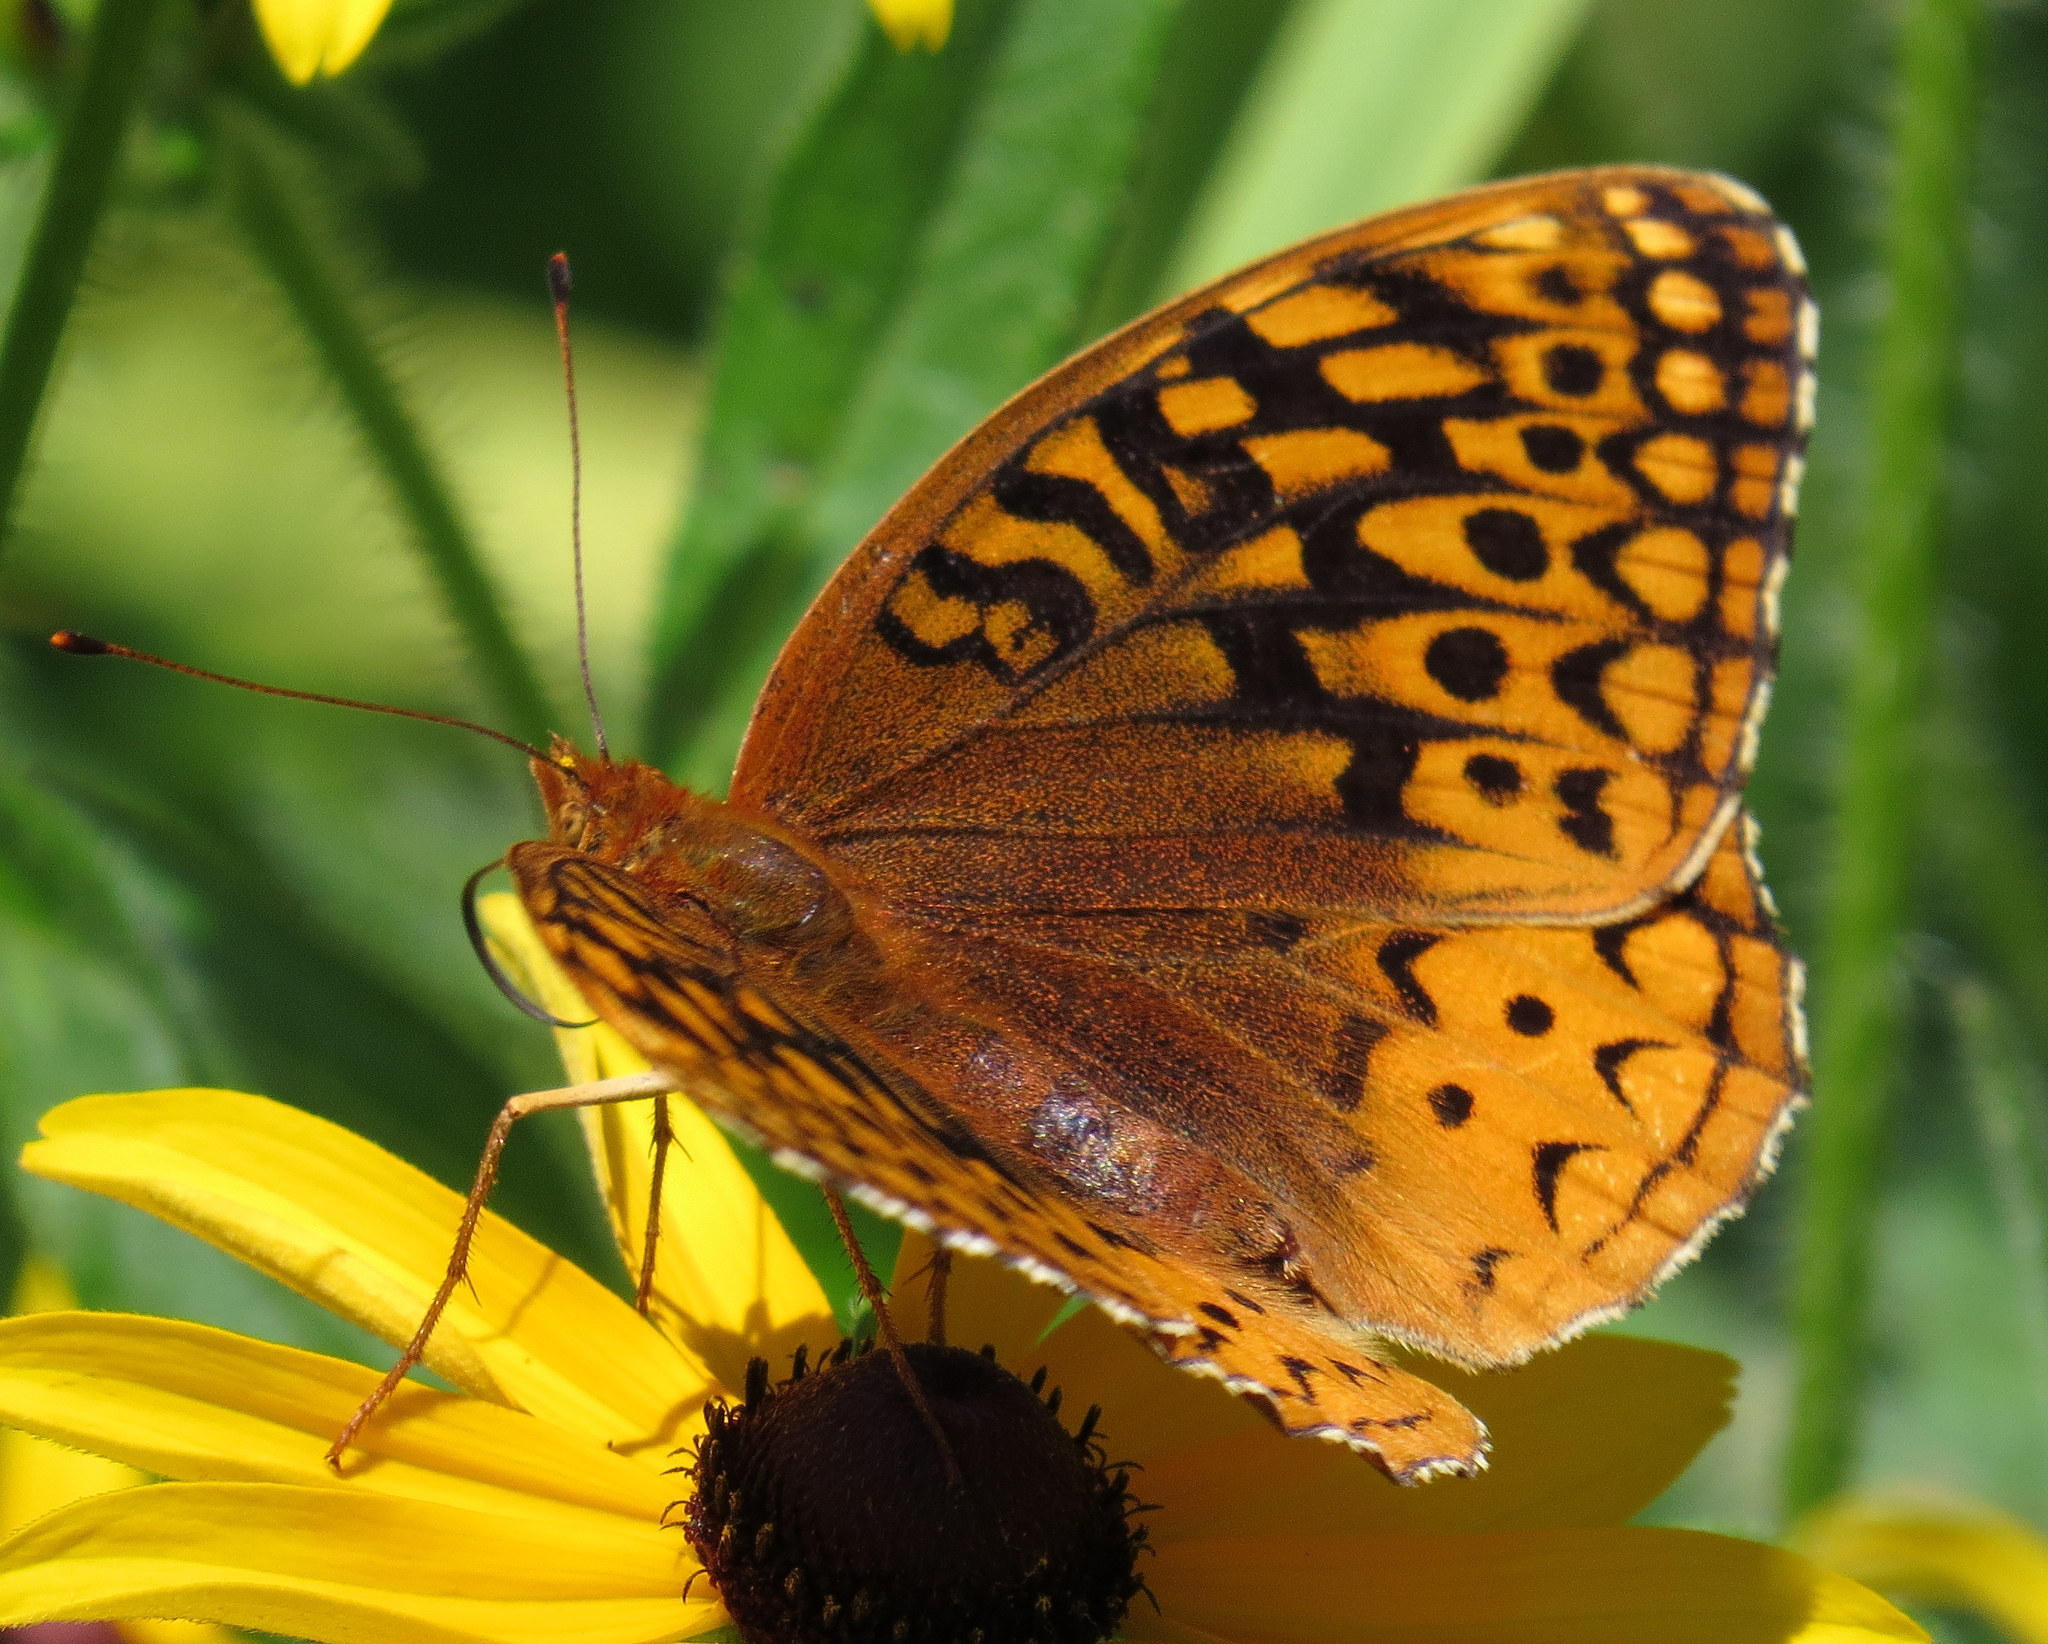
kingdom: Animalia
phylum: Arthropoda
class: Insecta
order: Lepidoptera
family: Nymphalidae
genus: Speyeria
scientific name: Speyeria cybele
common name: Great spangled fritillary
